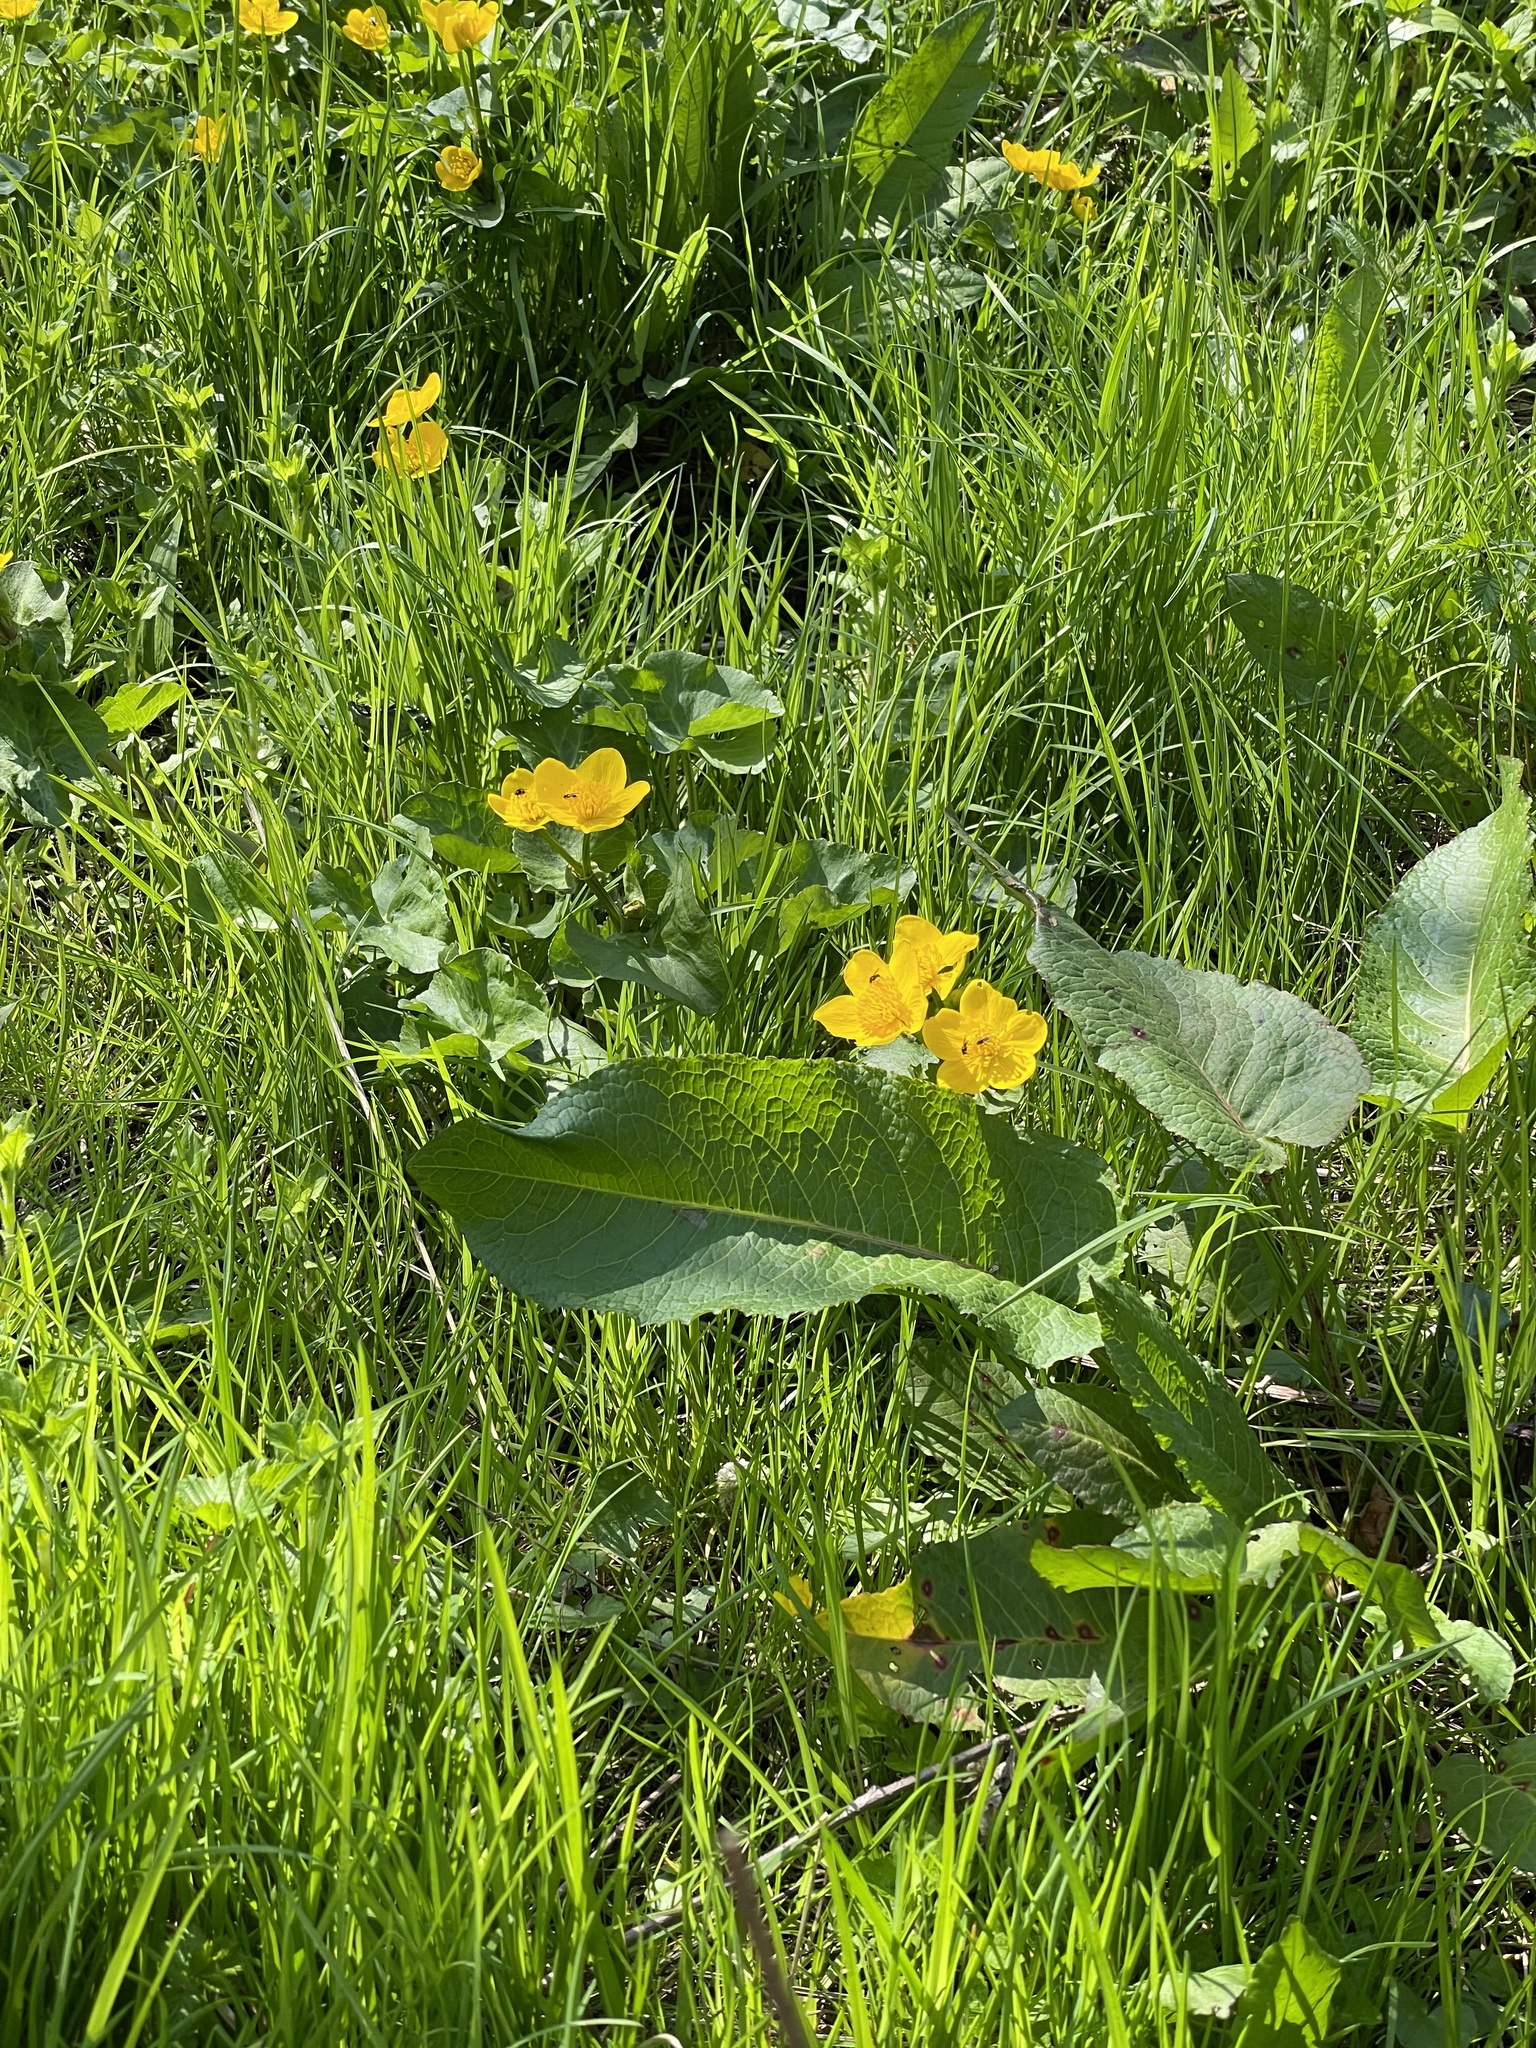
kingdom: Plantae
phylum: Tracheophyta
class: Magnoliopsida
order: Ranunculales
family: Ranunculaceae
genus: Caltha
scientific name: Caltha palustris
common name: Marsh marigold
